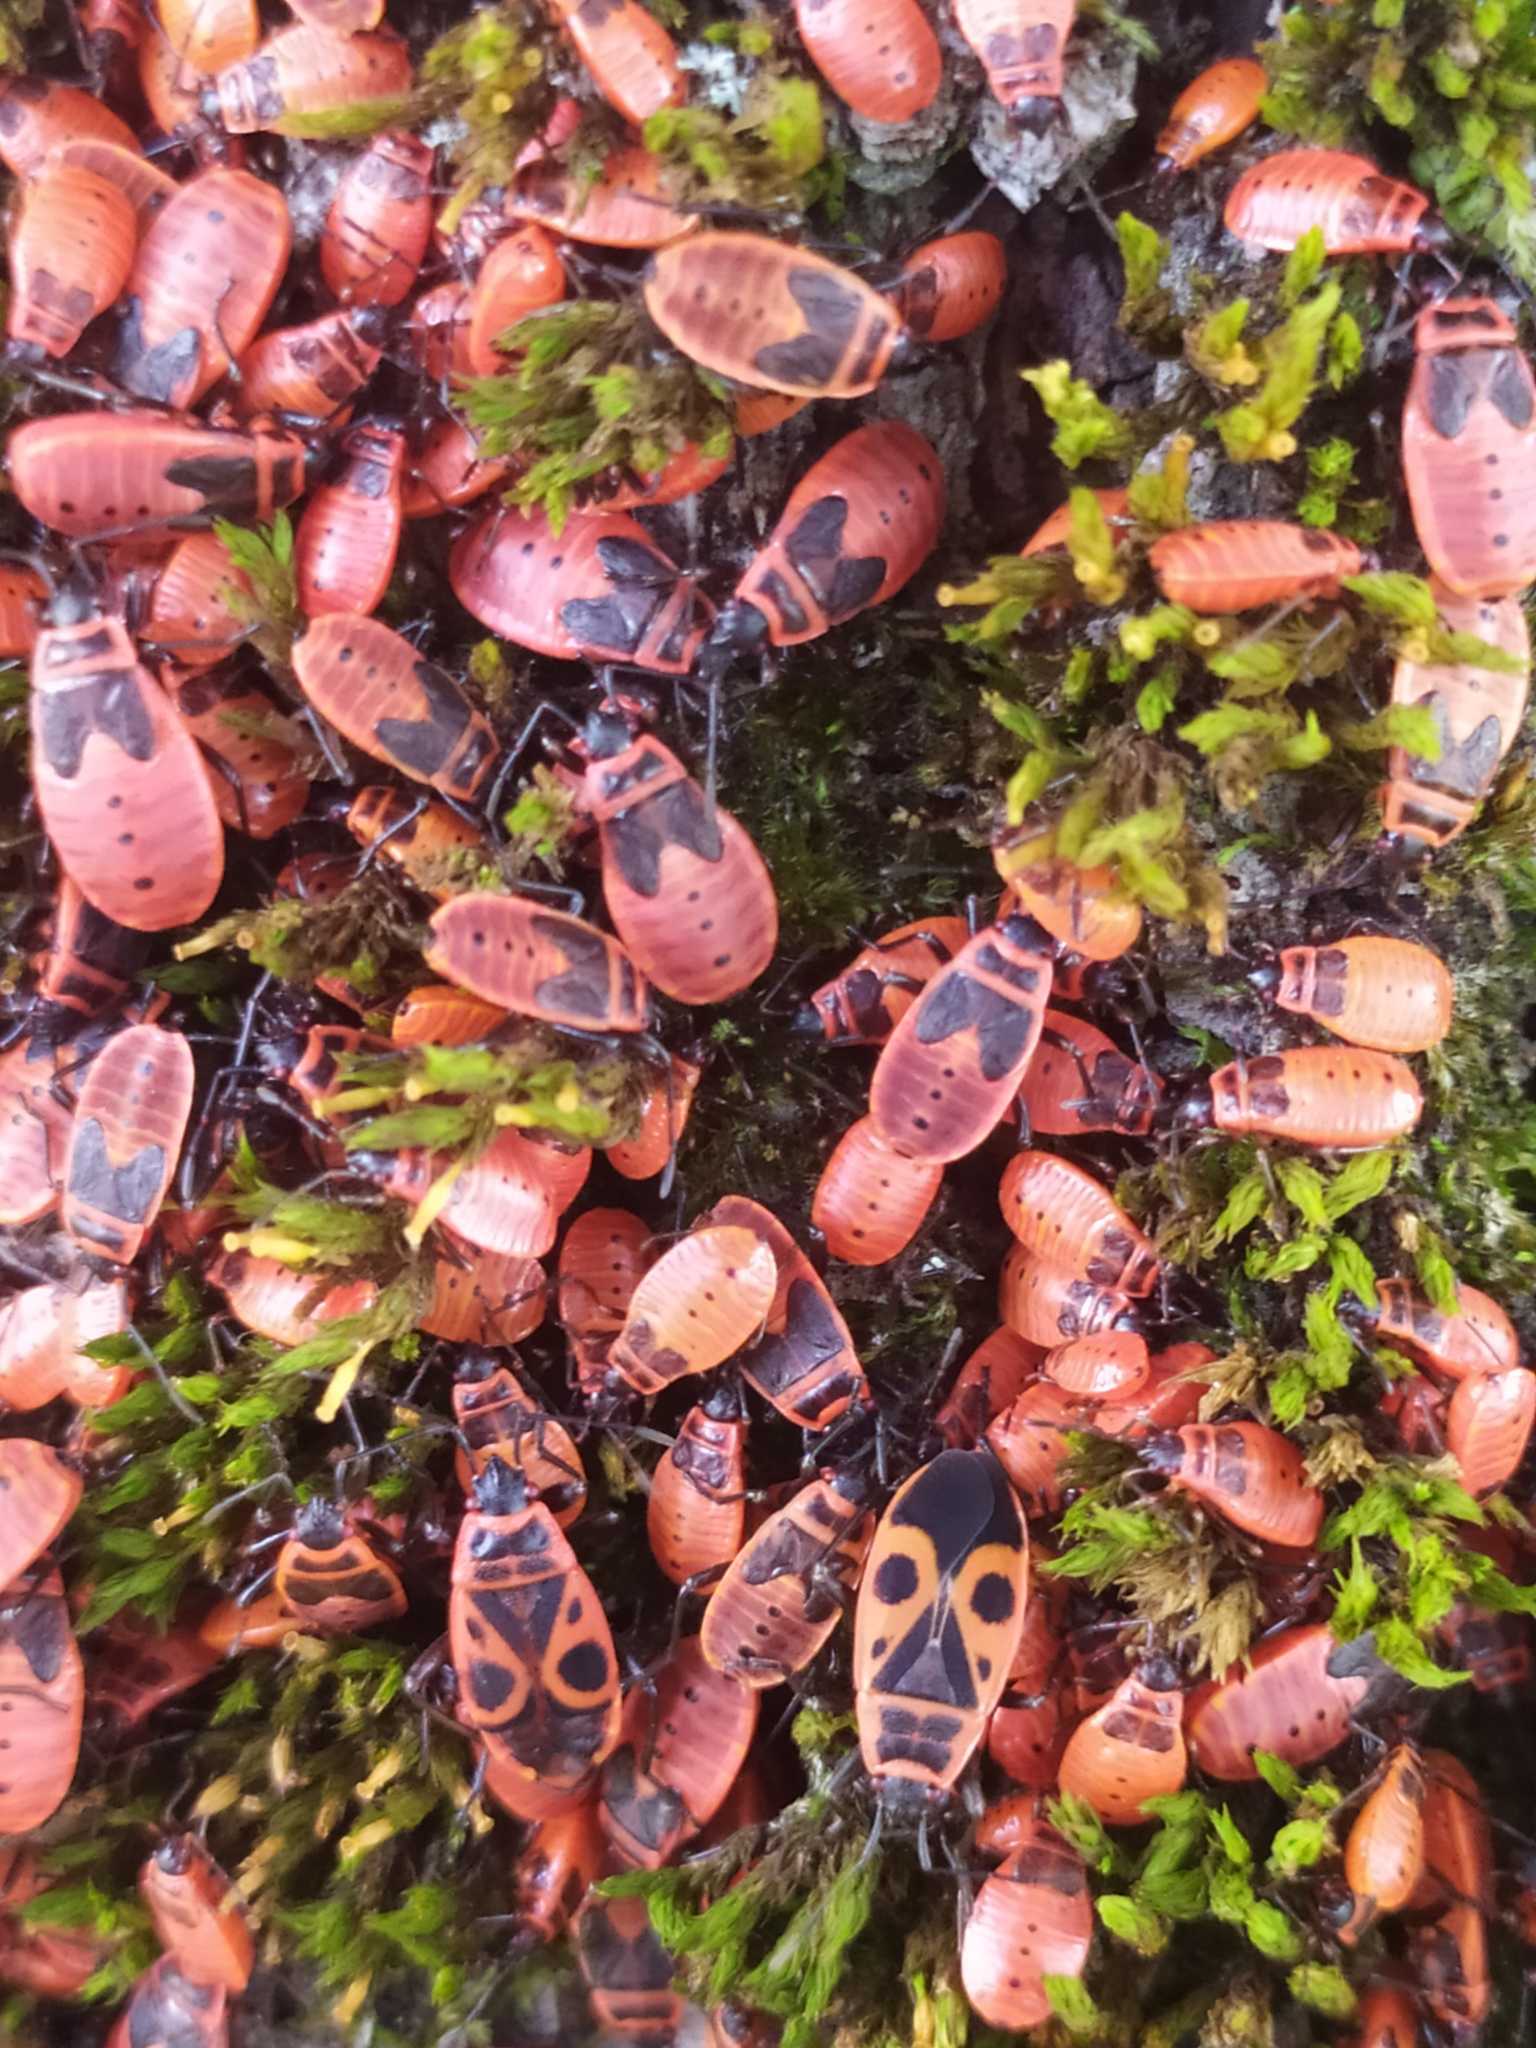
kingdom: Animalia
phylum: Arthropoda
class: Insecta
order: Hemiptera
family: Pyrrhocoridae
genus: Pyrrhocoris
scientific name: Pyrrhocoris apterus
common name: Firebug
